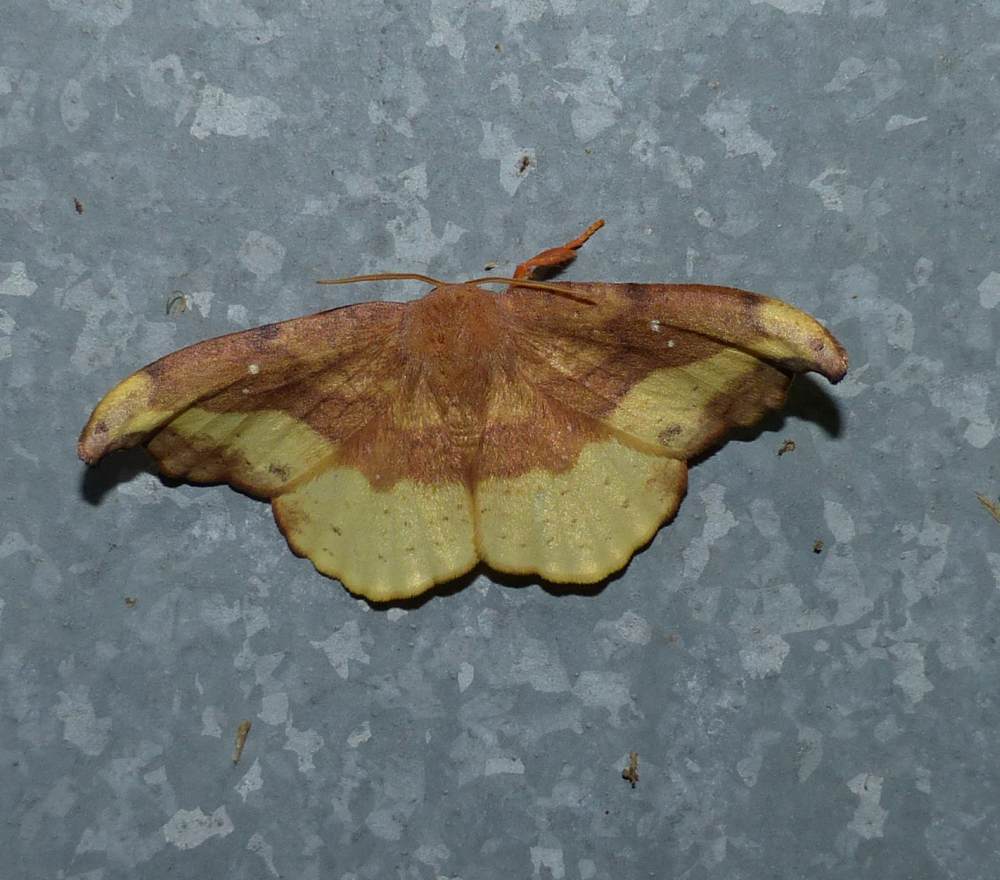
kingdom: Animalia
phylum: Arthropoda
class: Insecta
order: Lepidoptera
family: Drepanidae
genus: Oreta
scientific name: Oreta rosea
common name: Rose hooktip
